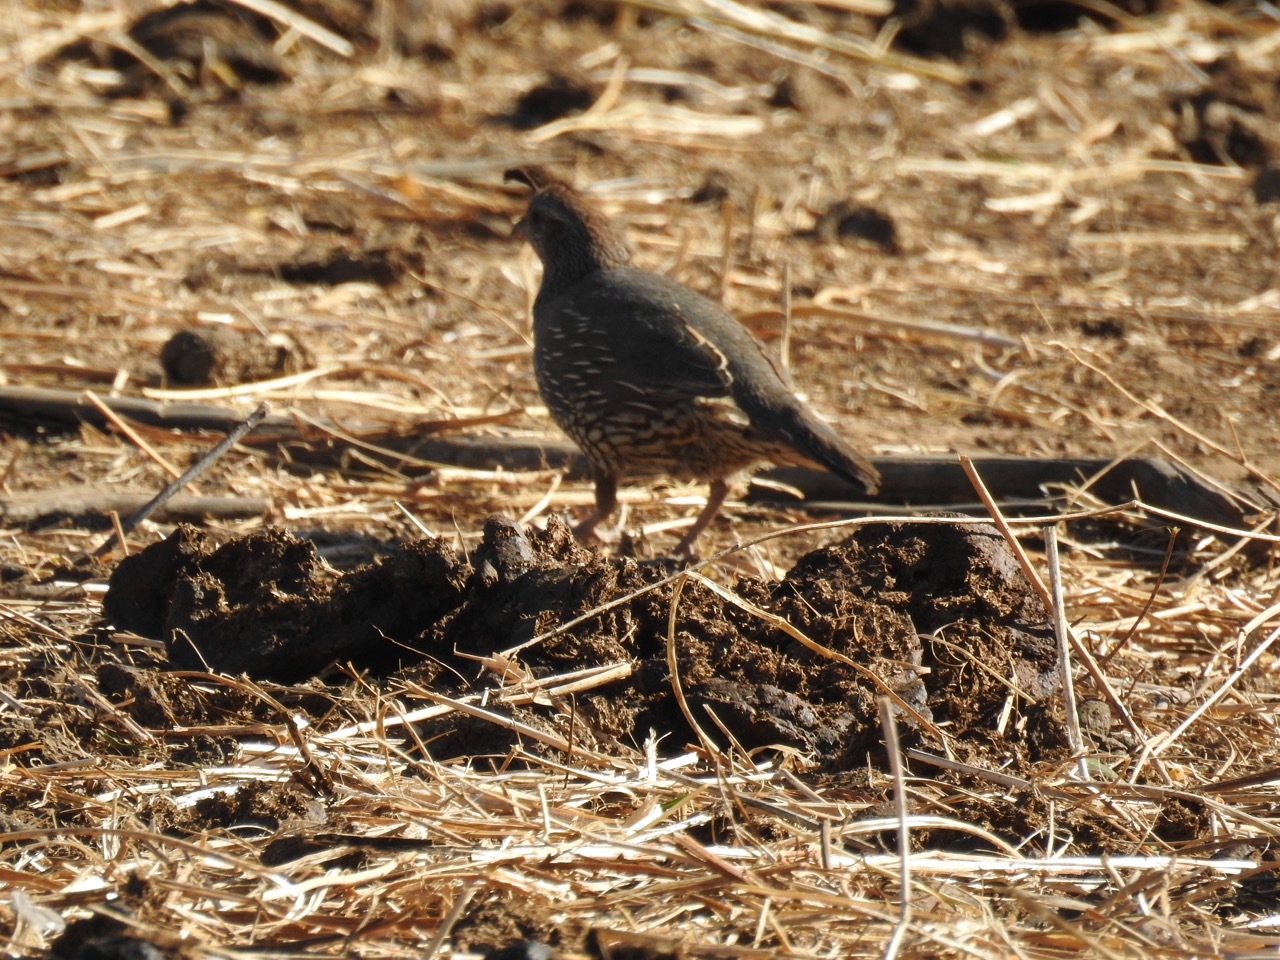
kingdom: Animalia
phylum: Chordata
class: Aves
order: Galliformes
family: Odontophoridae
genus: Callipepla
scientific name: Callipepla californica
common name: California quail
